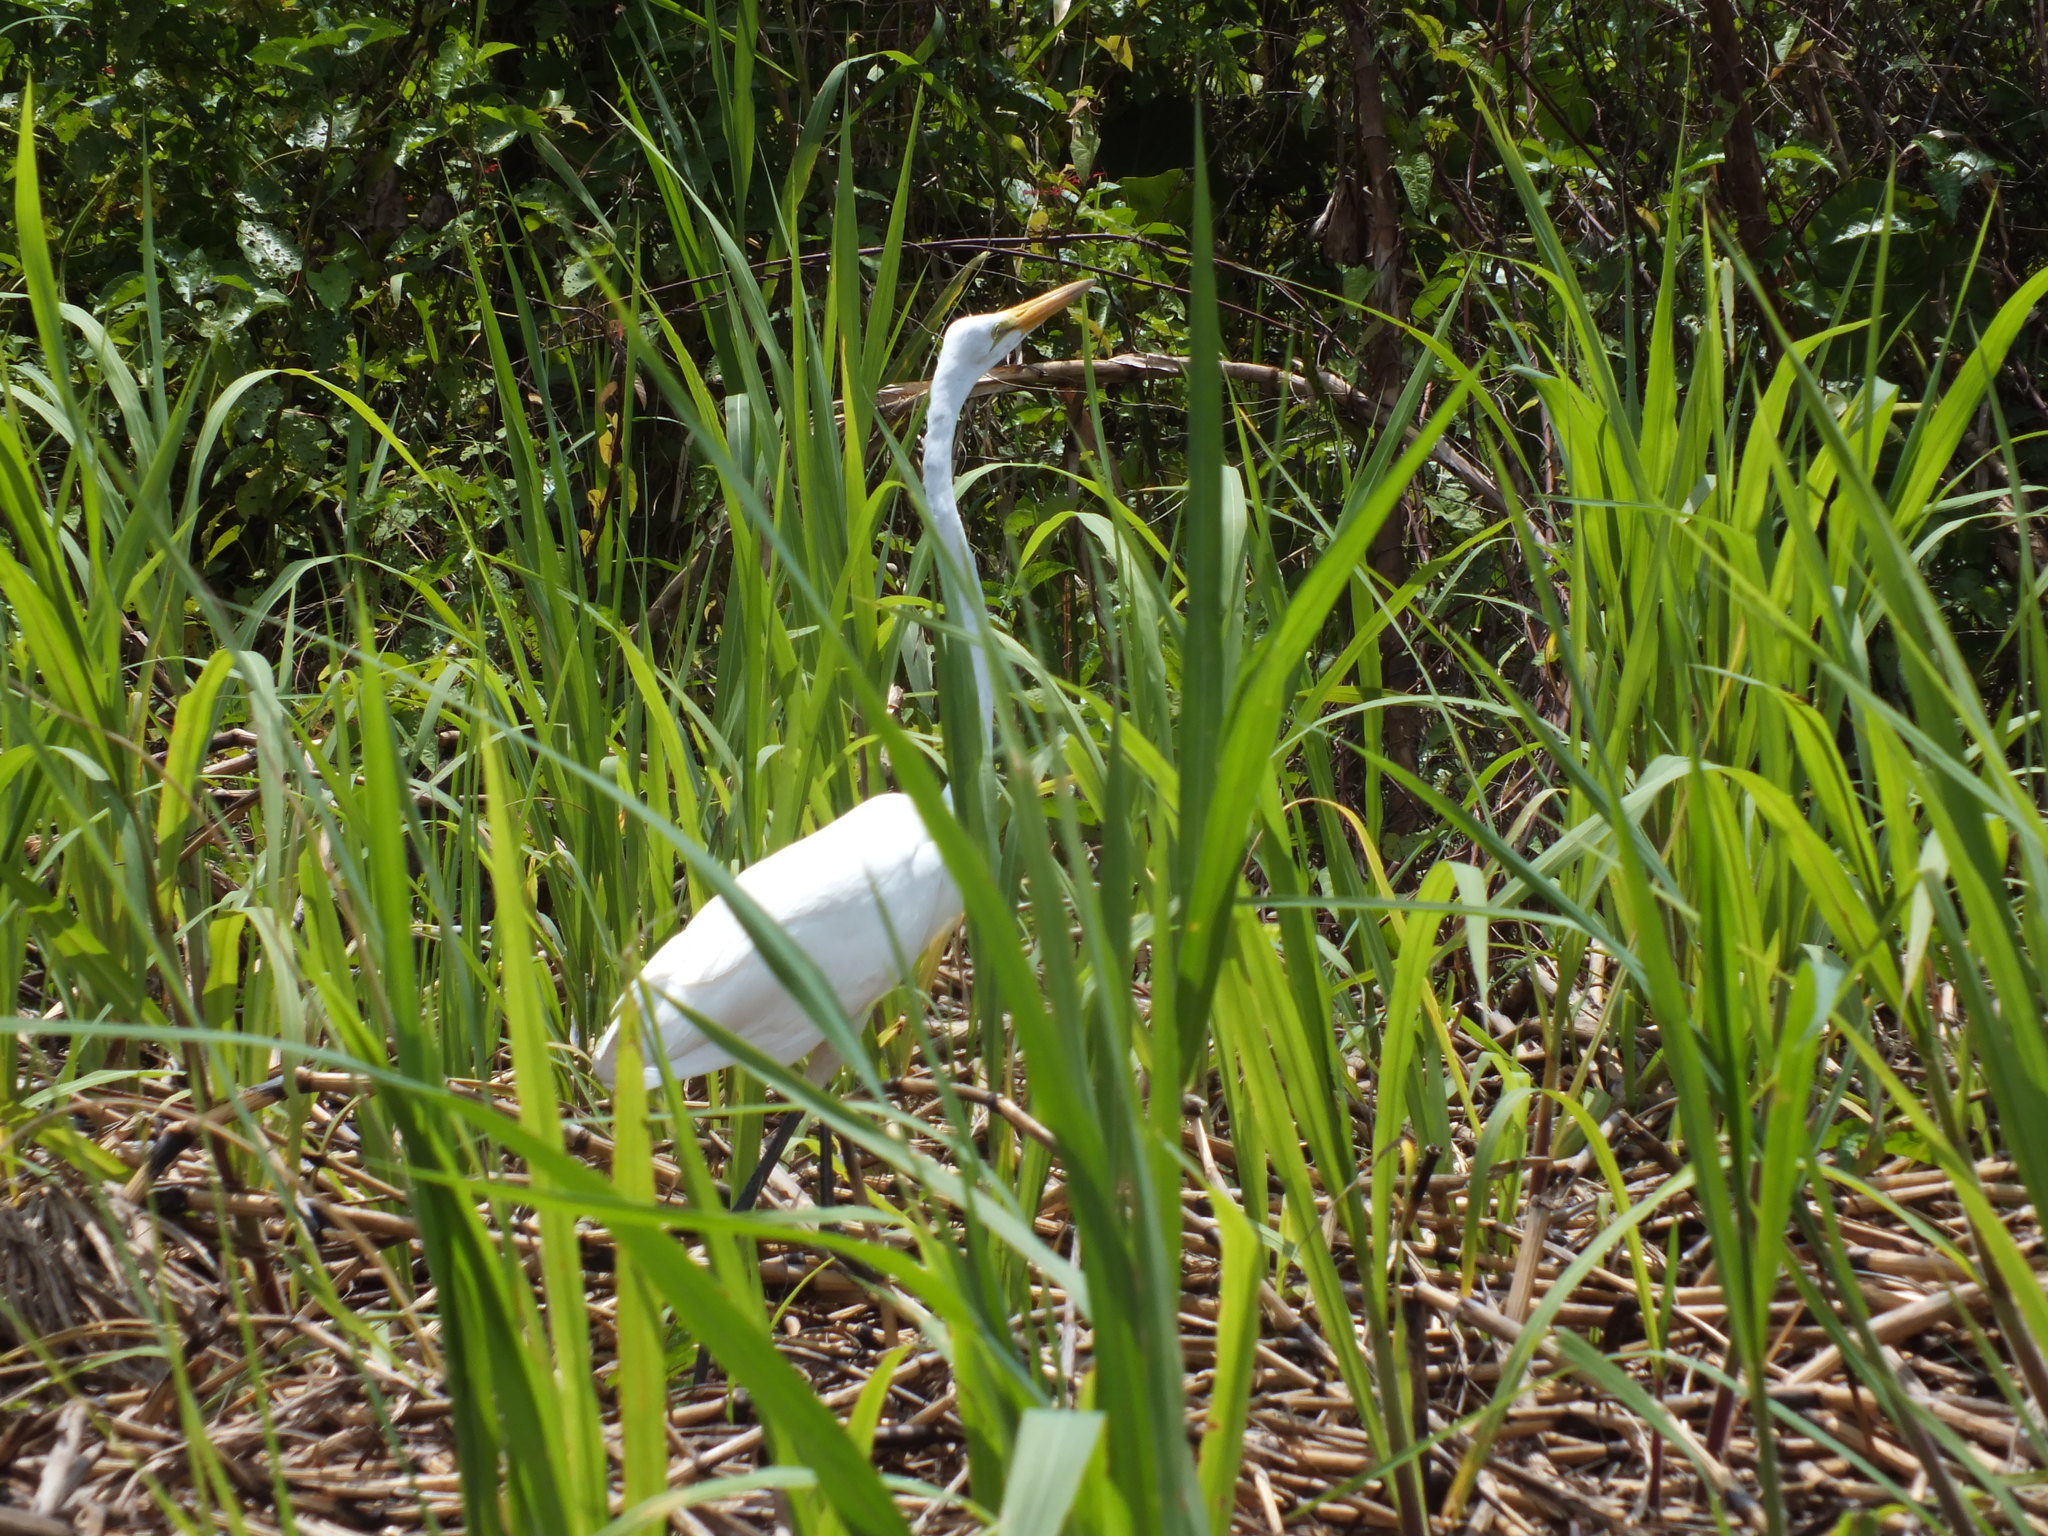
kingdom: Animalia
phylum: Chordata
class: Aves
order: Pelecaniformes
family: Ardeidae
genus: Ardea
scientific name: Ardea alba
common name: Great egret
